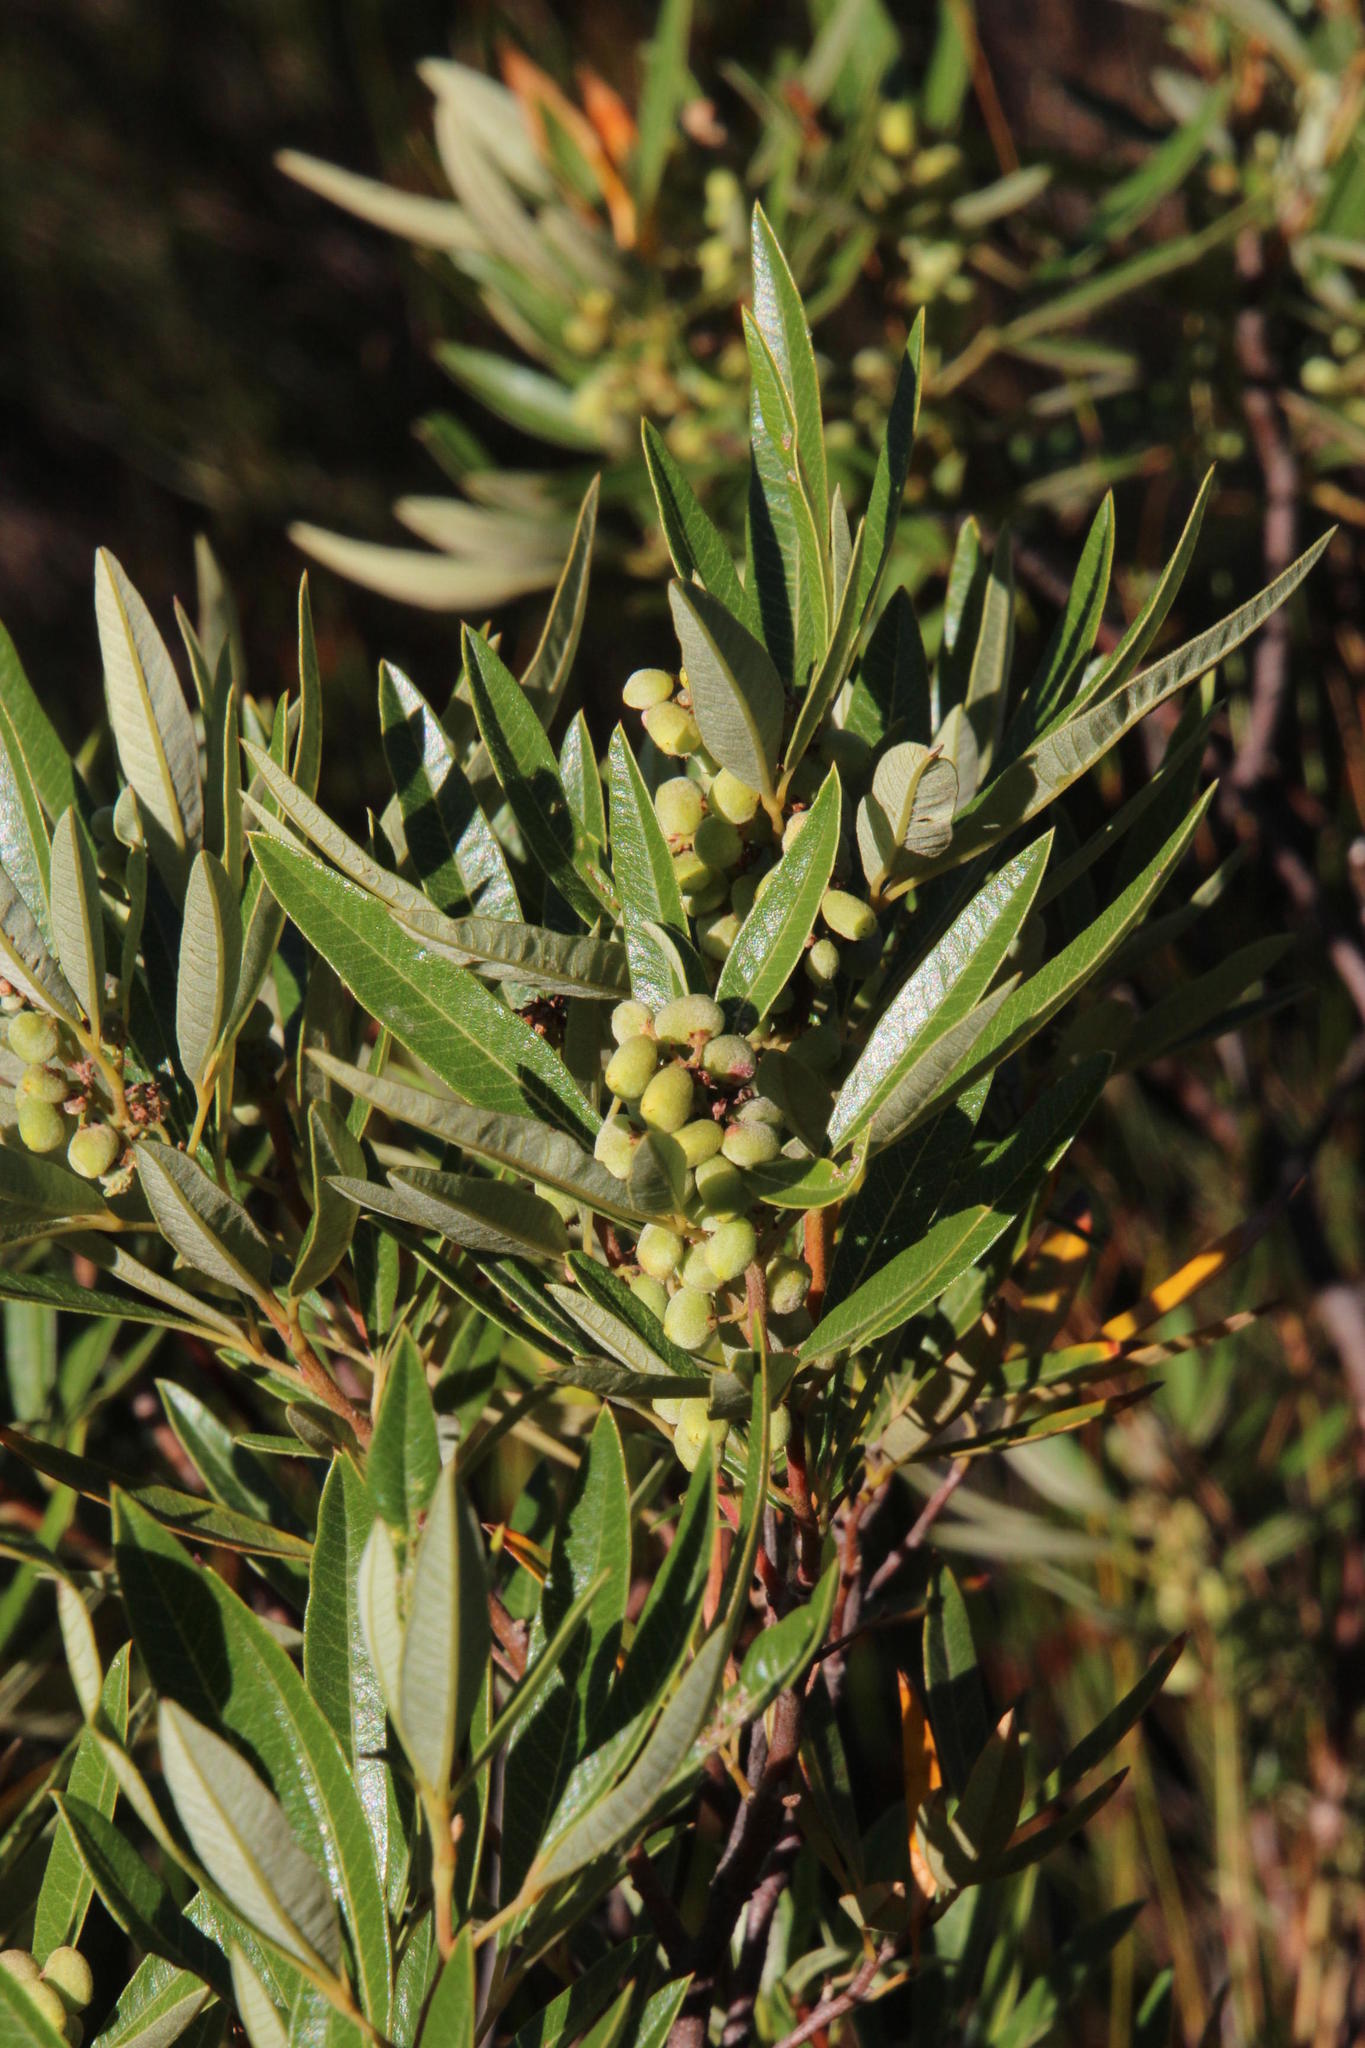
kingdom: Plantae
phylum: Tracheophyta
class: Magnoliopsida
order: Sapindales
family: Anacardiaceae
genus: Searsia
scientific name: Searsia angustifolia
